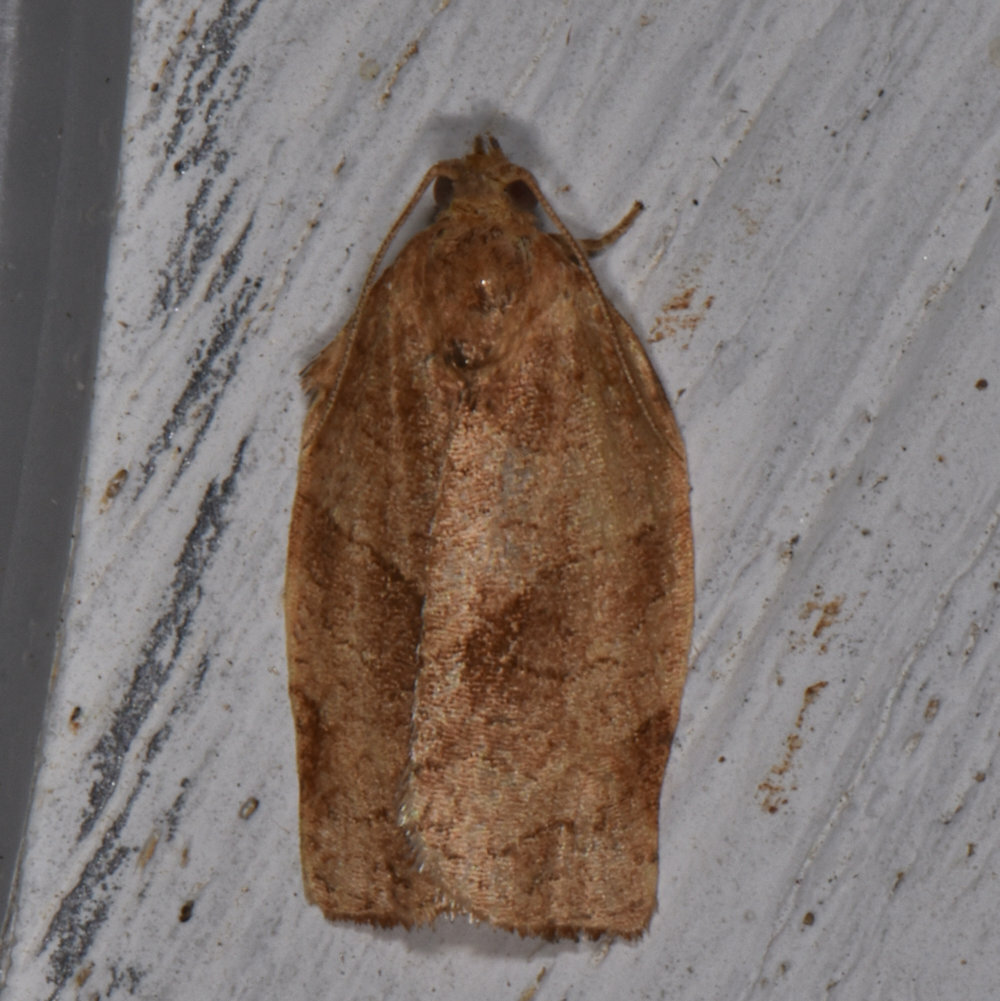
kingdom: Animalia
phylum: Arthropoda
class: Insecta
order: Lepidoptera
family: Tortricidae
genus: Choristoneura
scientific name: Choristoneura rosaceana
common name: Oblique-banded leafroller moth
